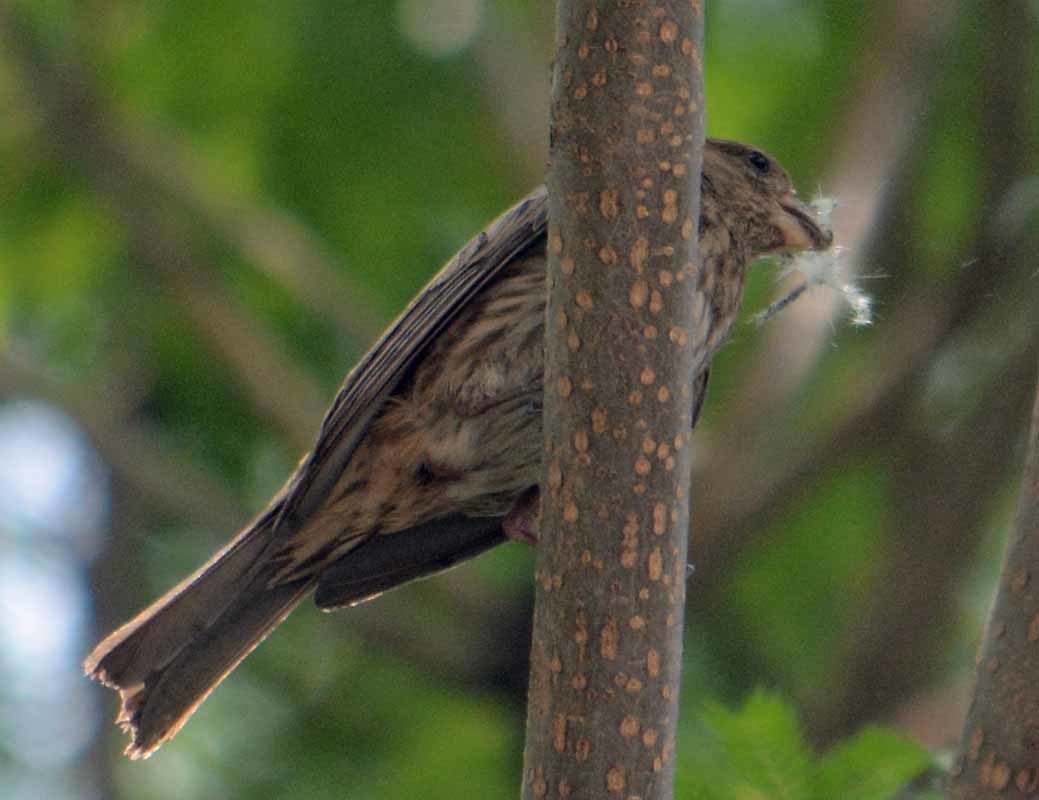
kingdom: Animalia
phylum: Chordata
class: Aves
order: Passeriformes
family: Fringillidae
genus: Haemorhous
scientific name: Haemorhous mexicanus
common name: House finch
